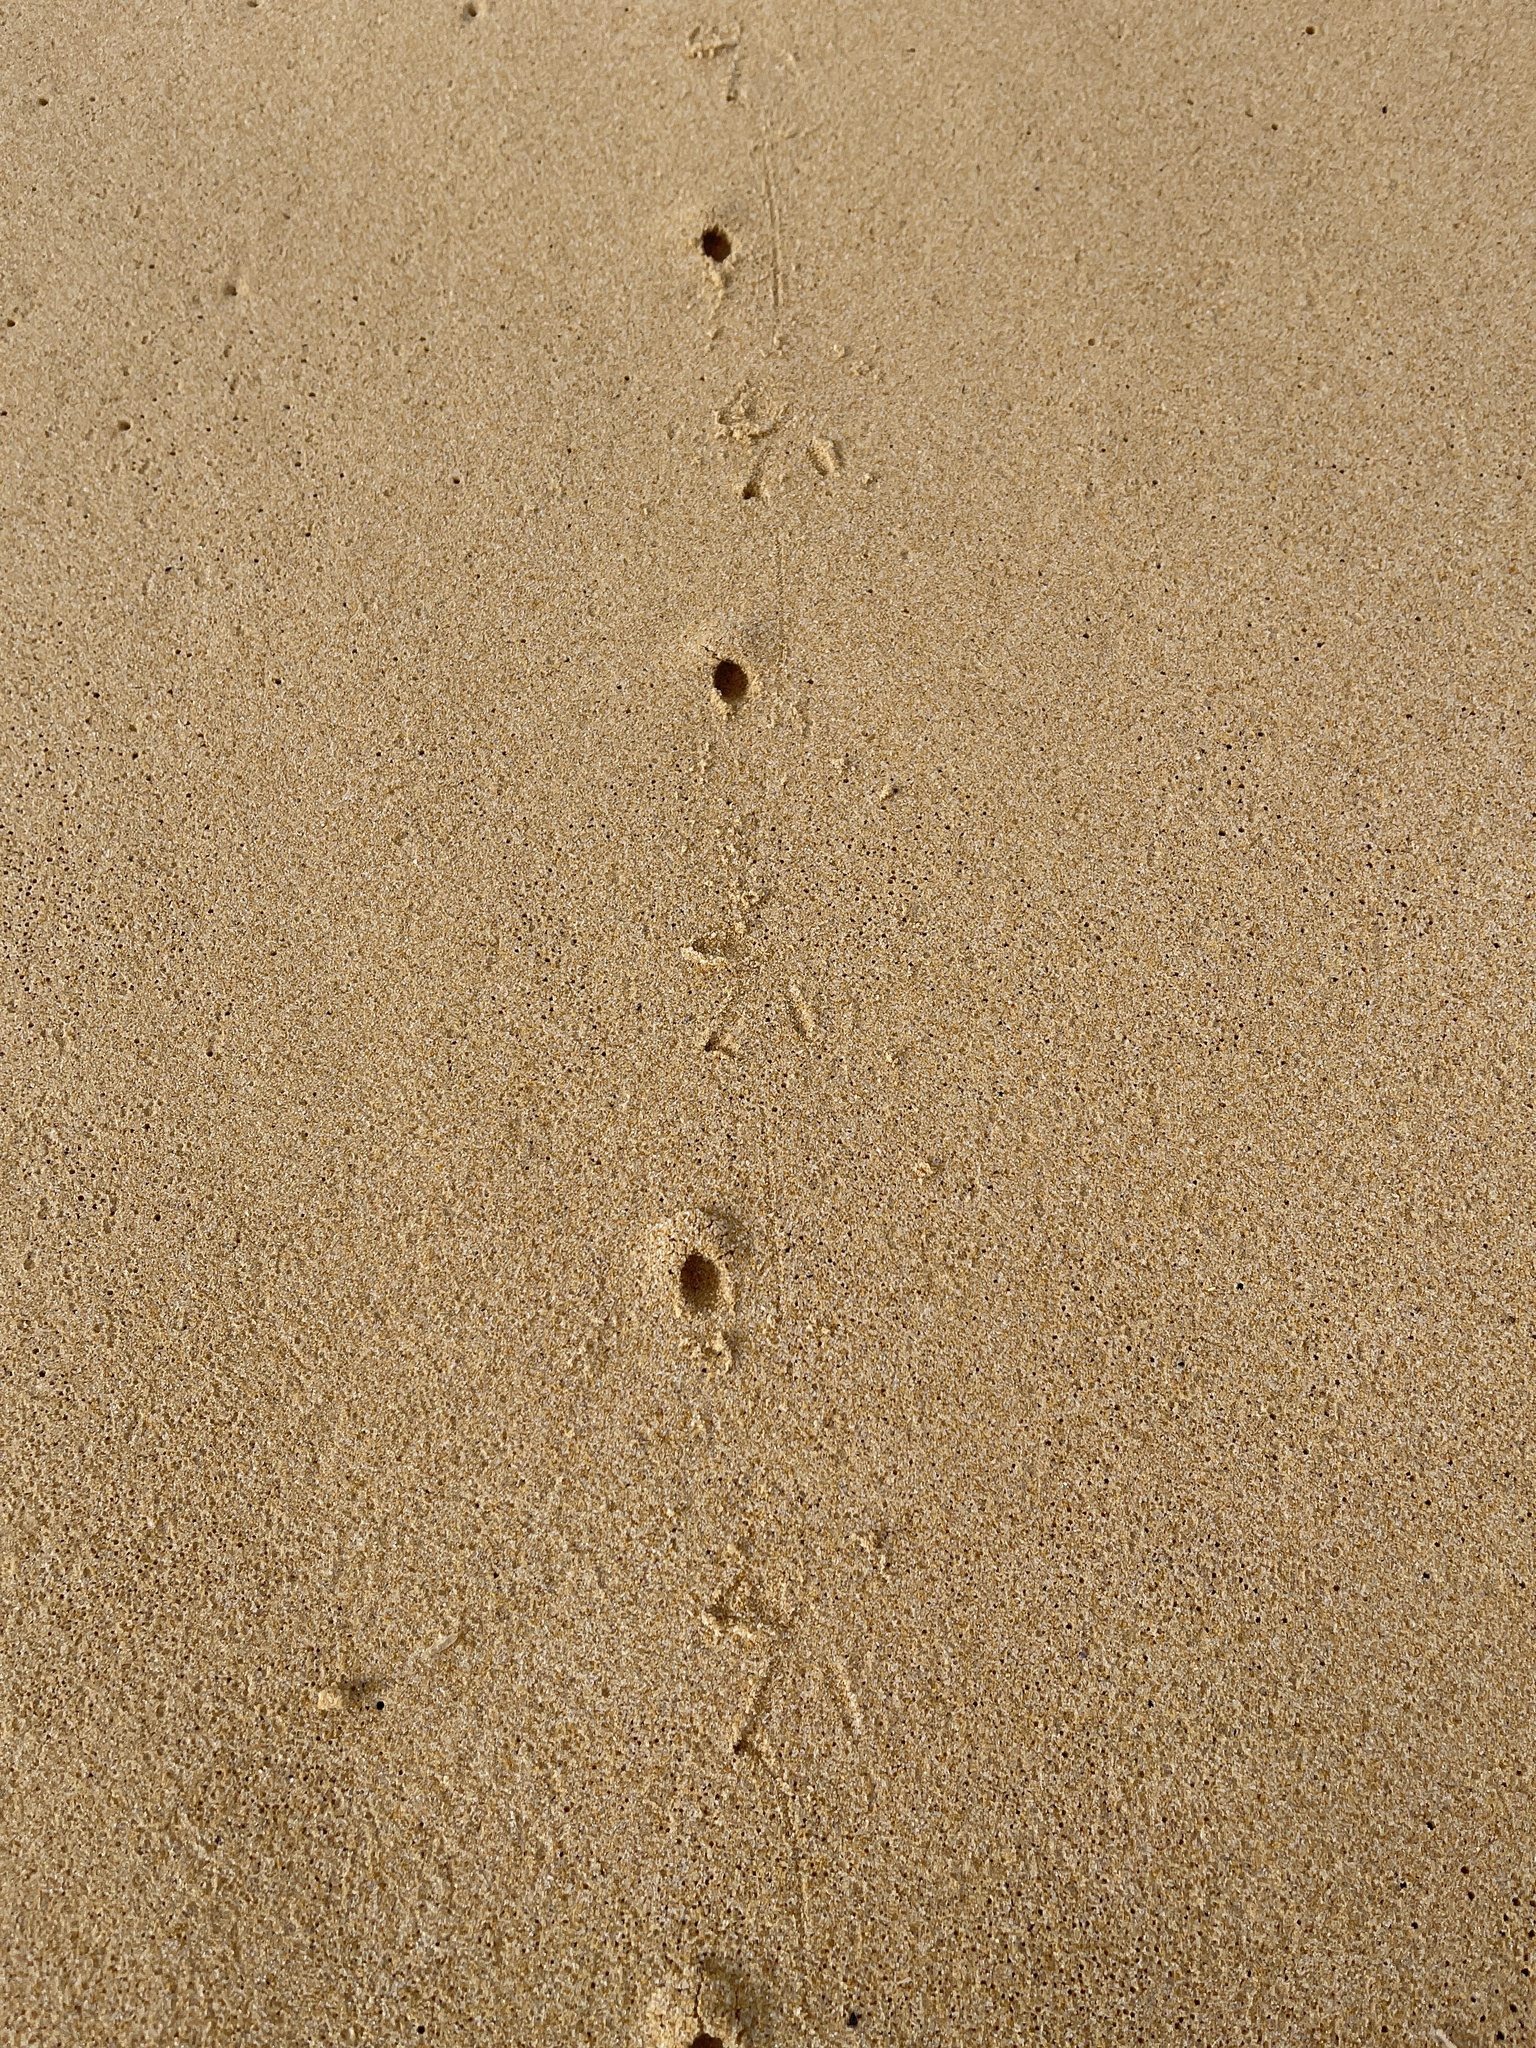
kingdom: Animalia
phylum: Chordata
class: Aves
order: Charadriiformes
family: Haematopodidae
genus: Haematopus
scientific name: Haematopus longirostris
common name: Pied oystercatcher
